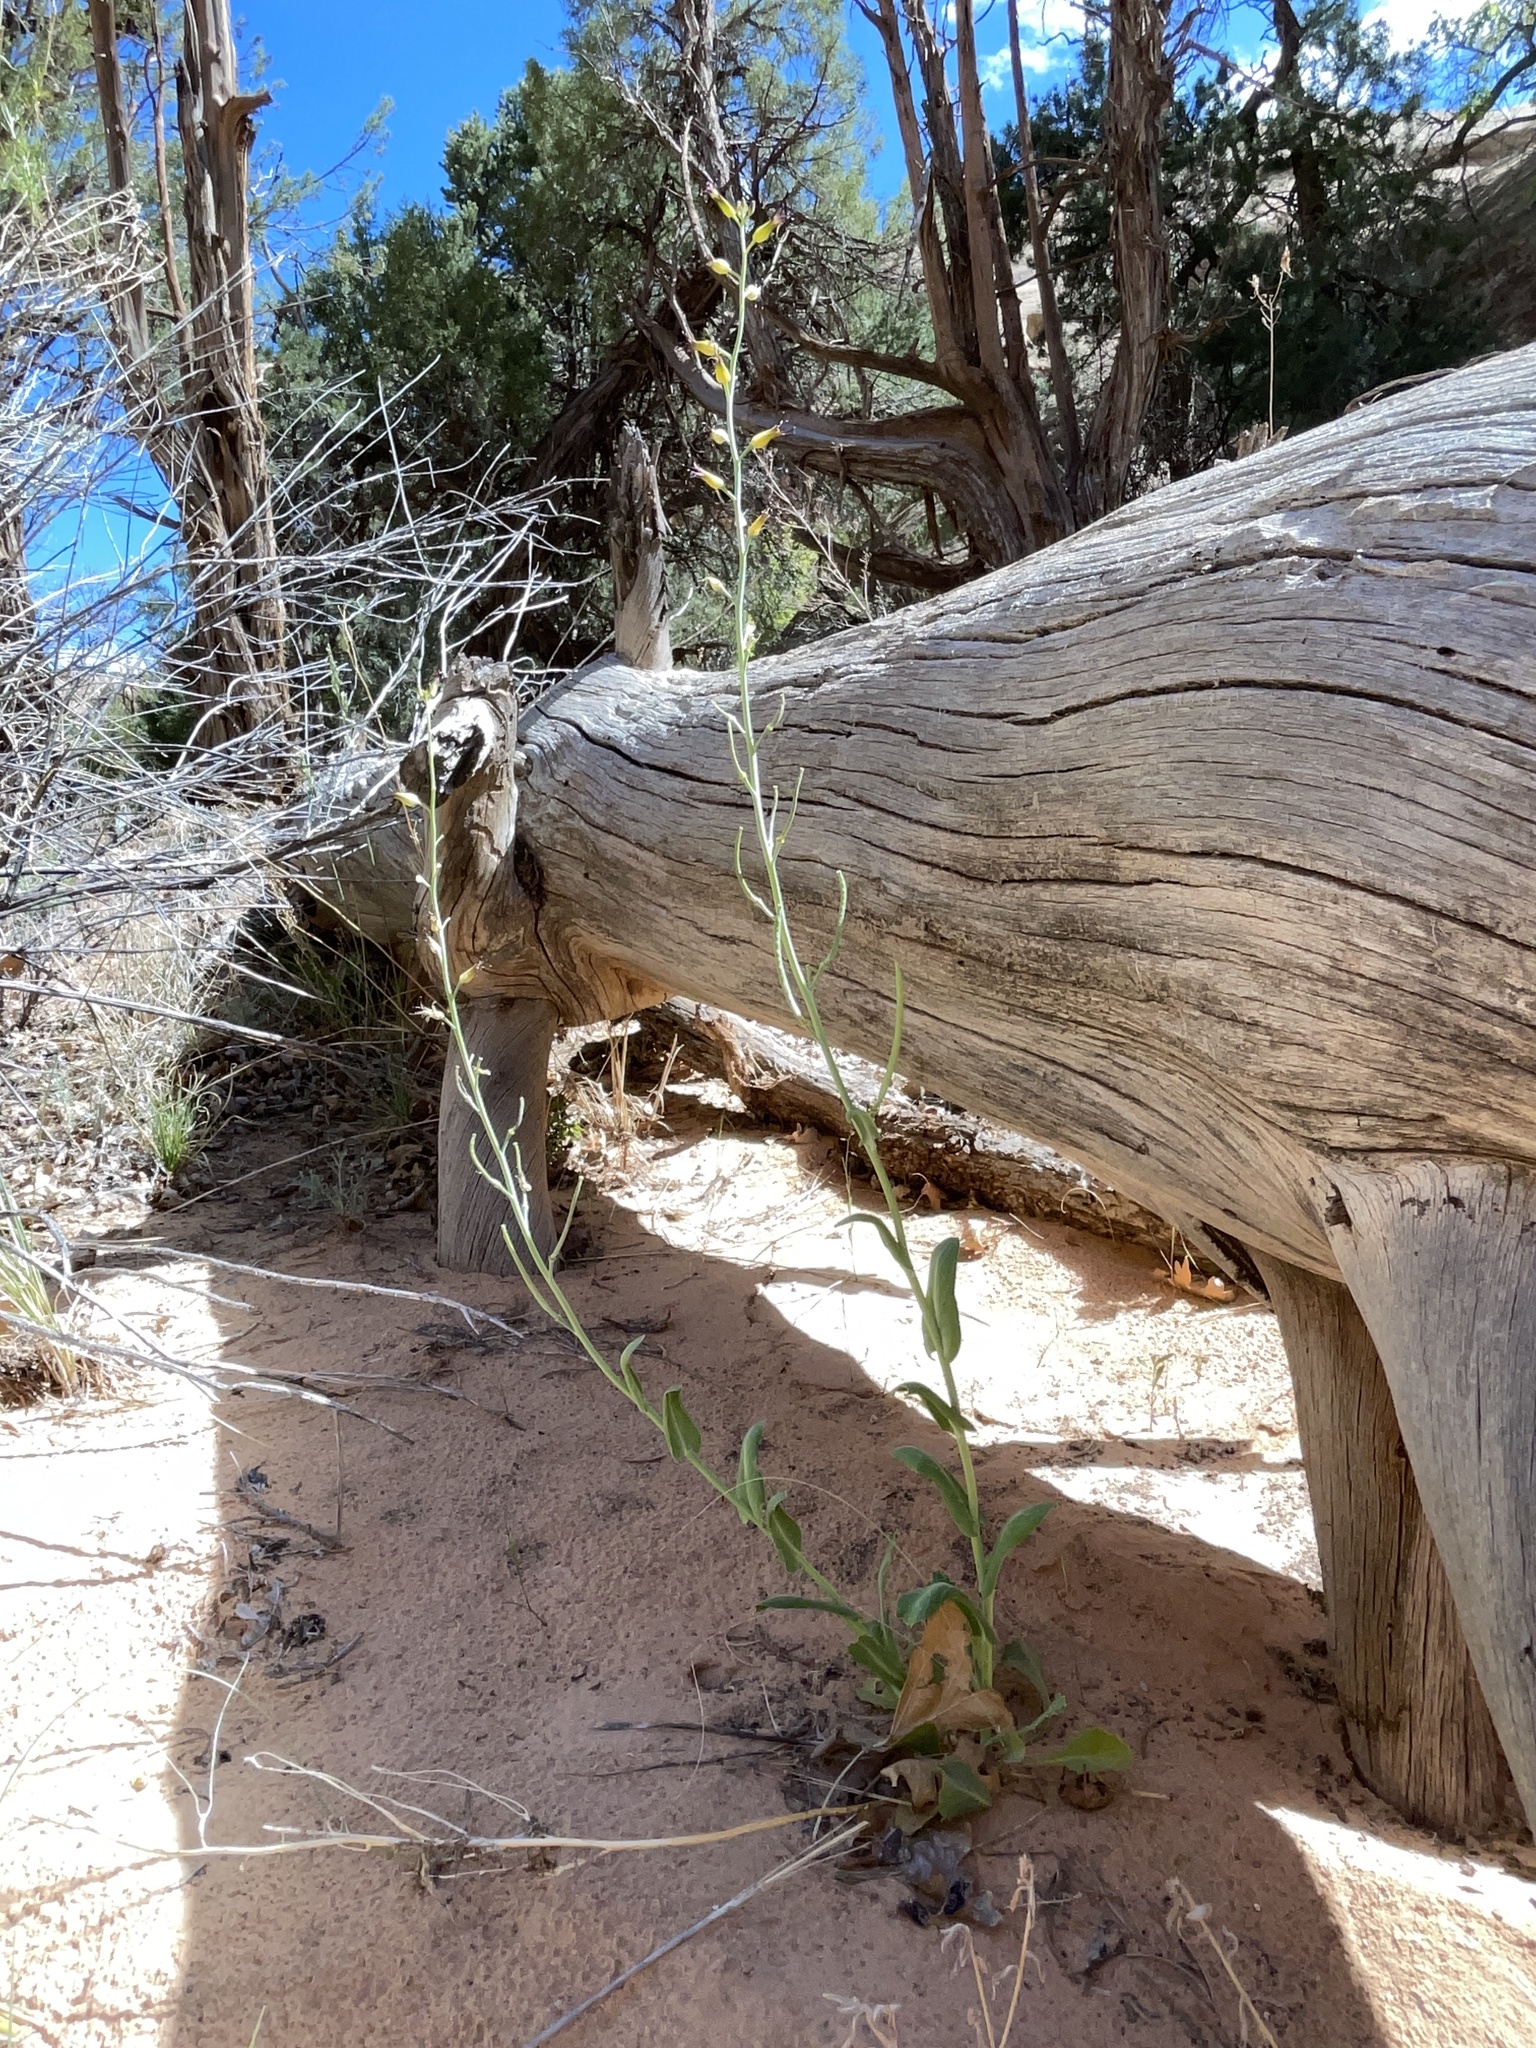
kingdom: Plantae
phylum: Tracheophyta
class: Magnoliopsida
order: Brassicales
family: Brassicaceae
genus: Streptanthus
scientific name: Streptanthus cordatus
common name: Heart-leaf jewel-flower
